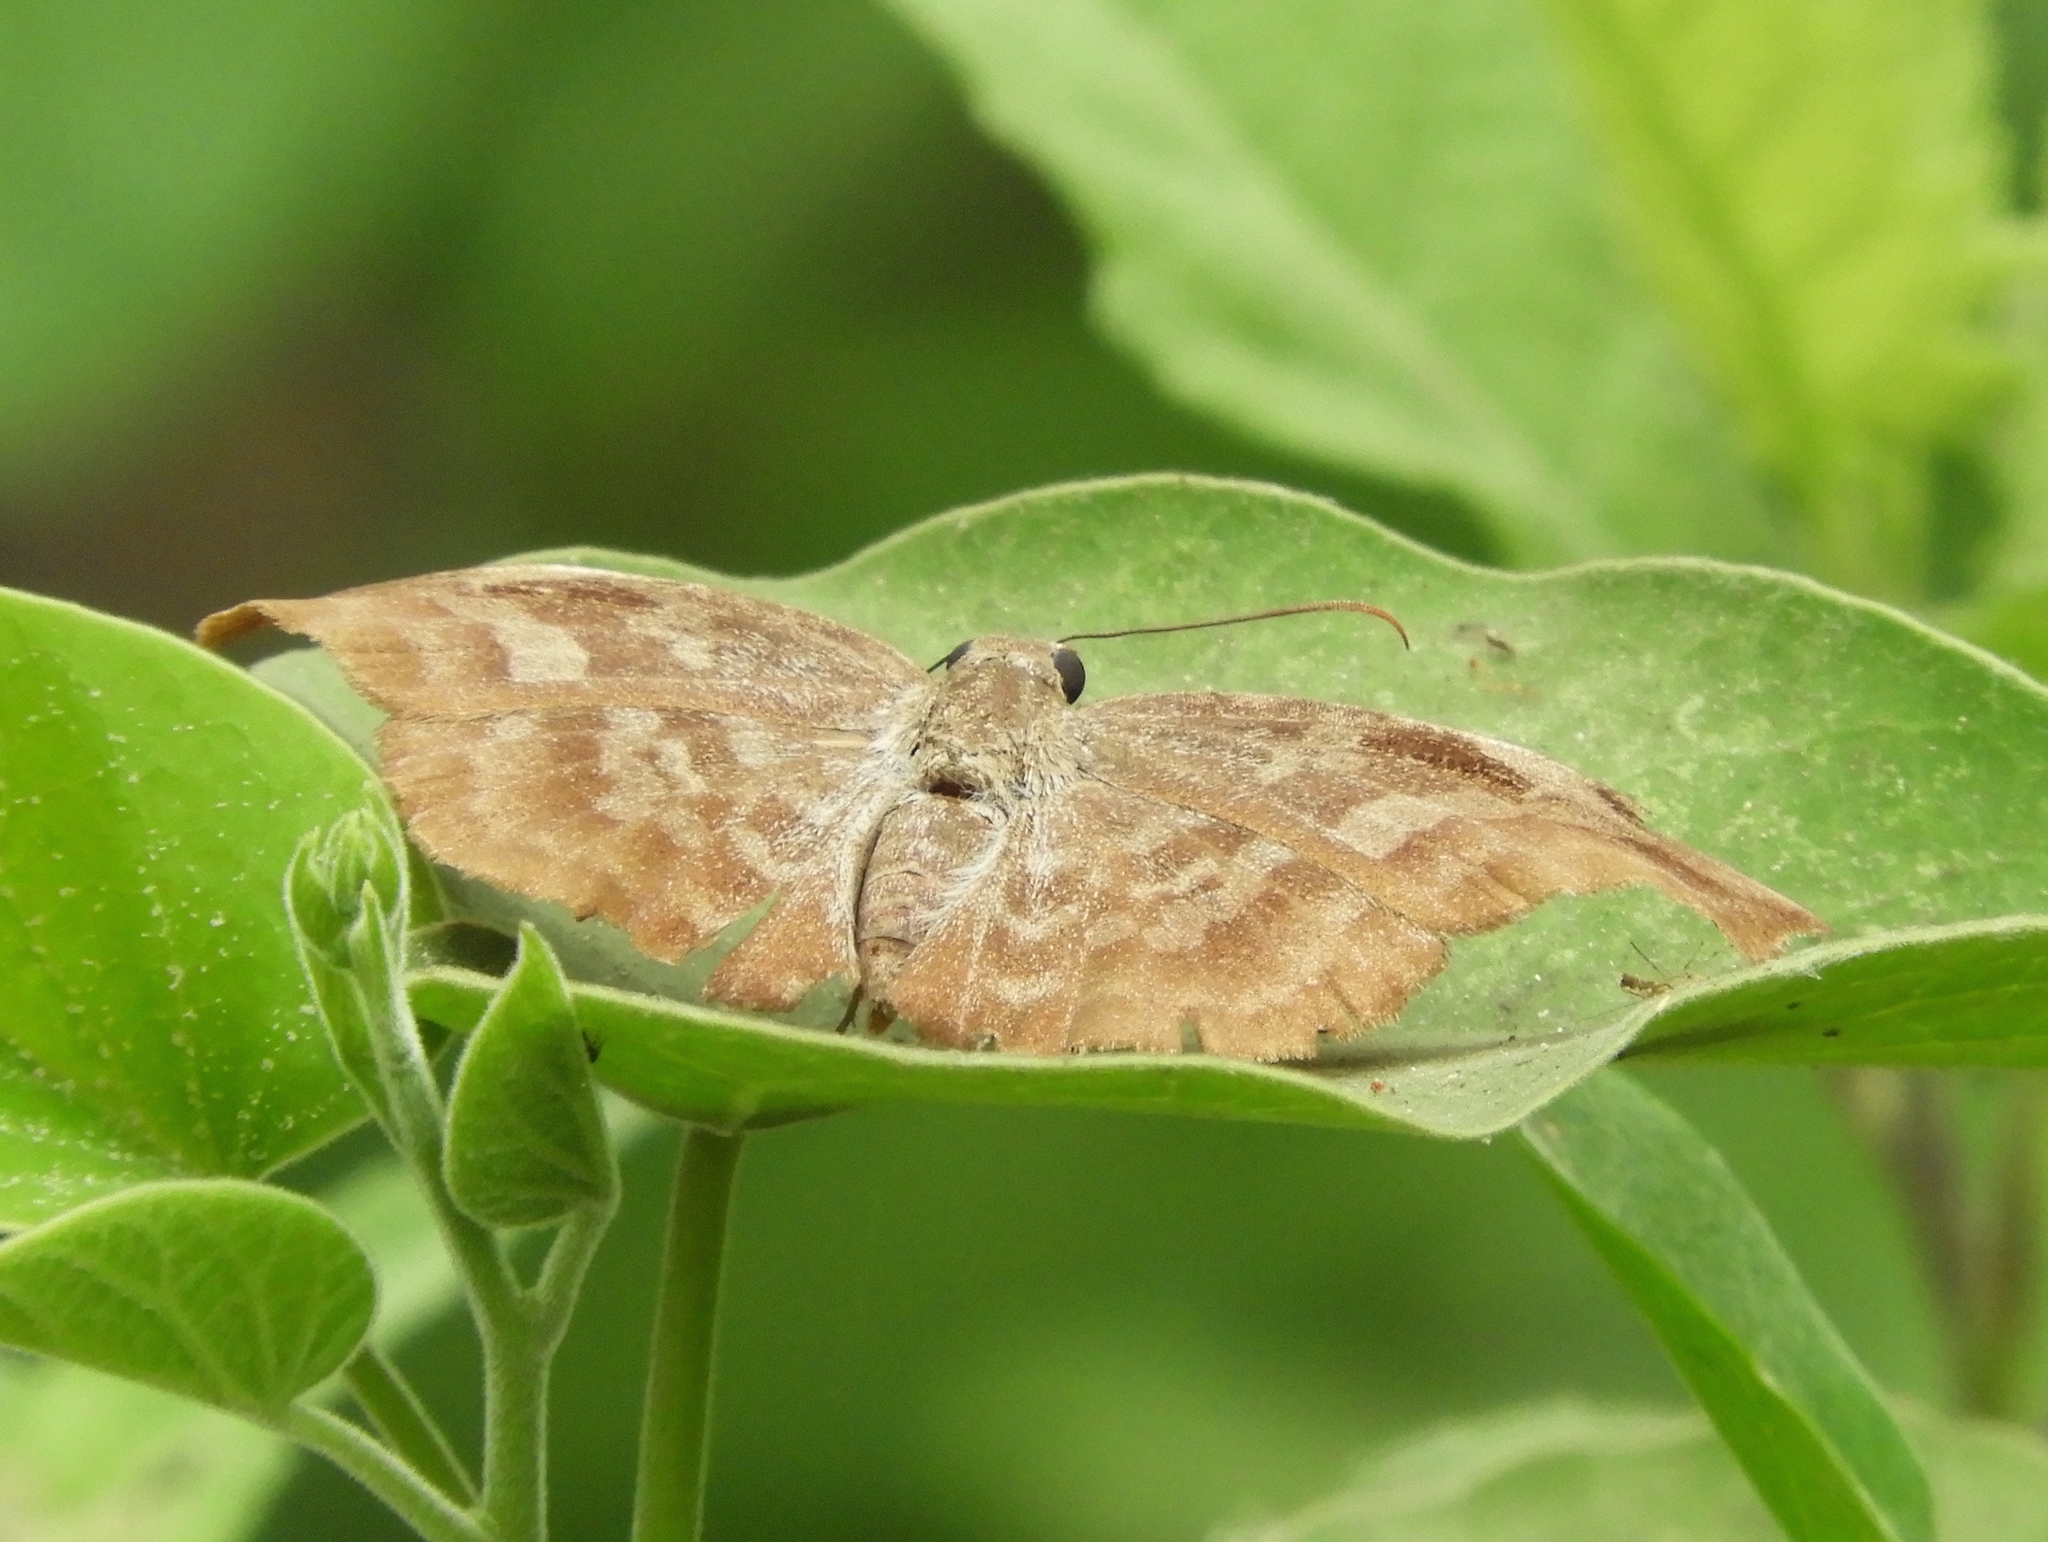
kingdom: Animalia
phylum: Arthropoda
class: Insecta
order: Lepidoptera
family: Hesperiidae
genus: Achlyodes
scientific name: Achlyodes thraso
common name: Sickle-winged skipper
